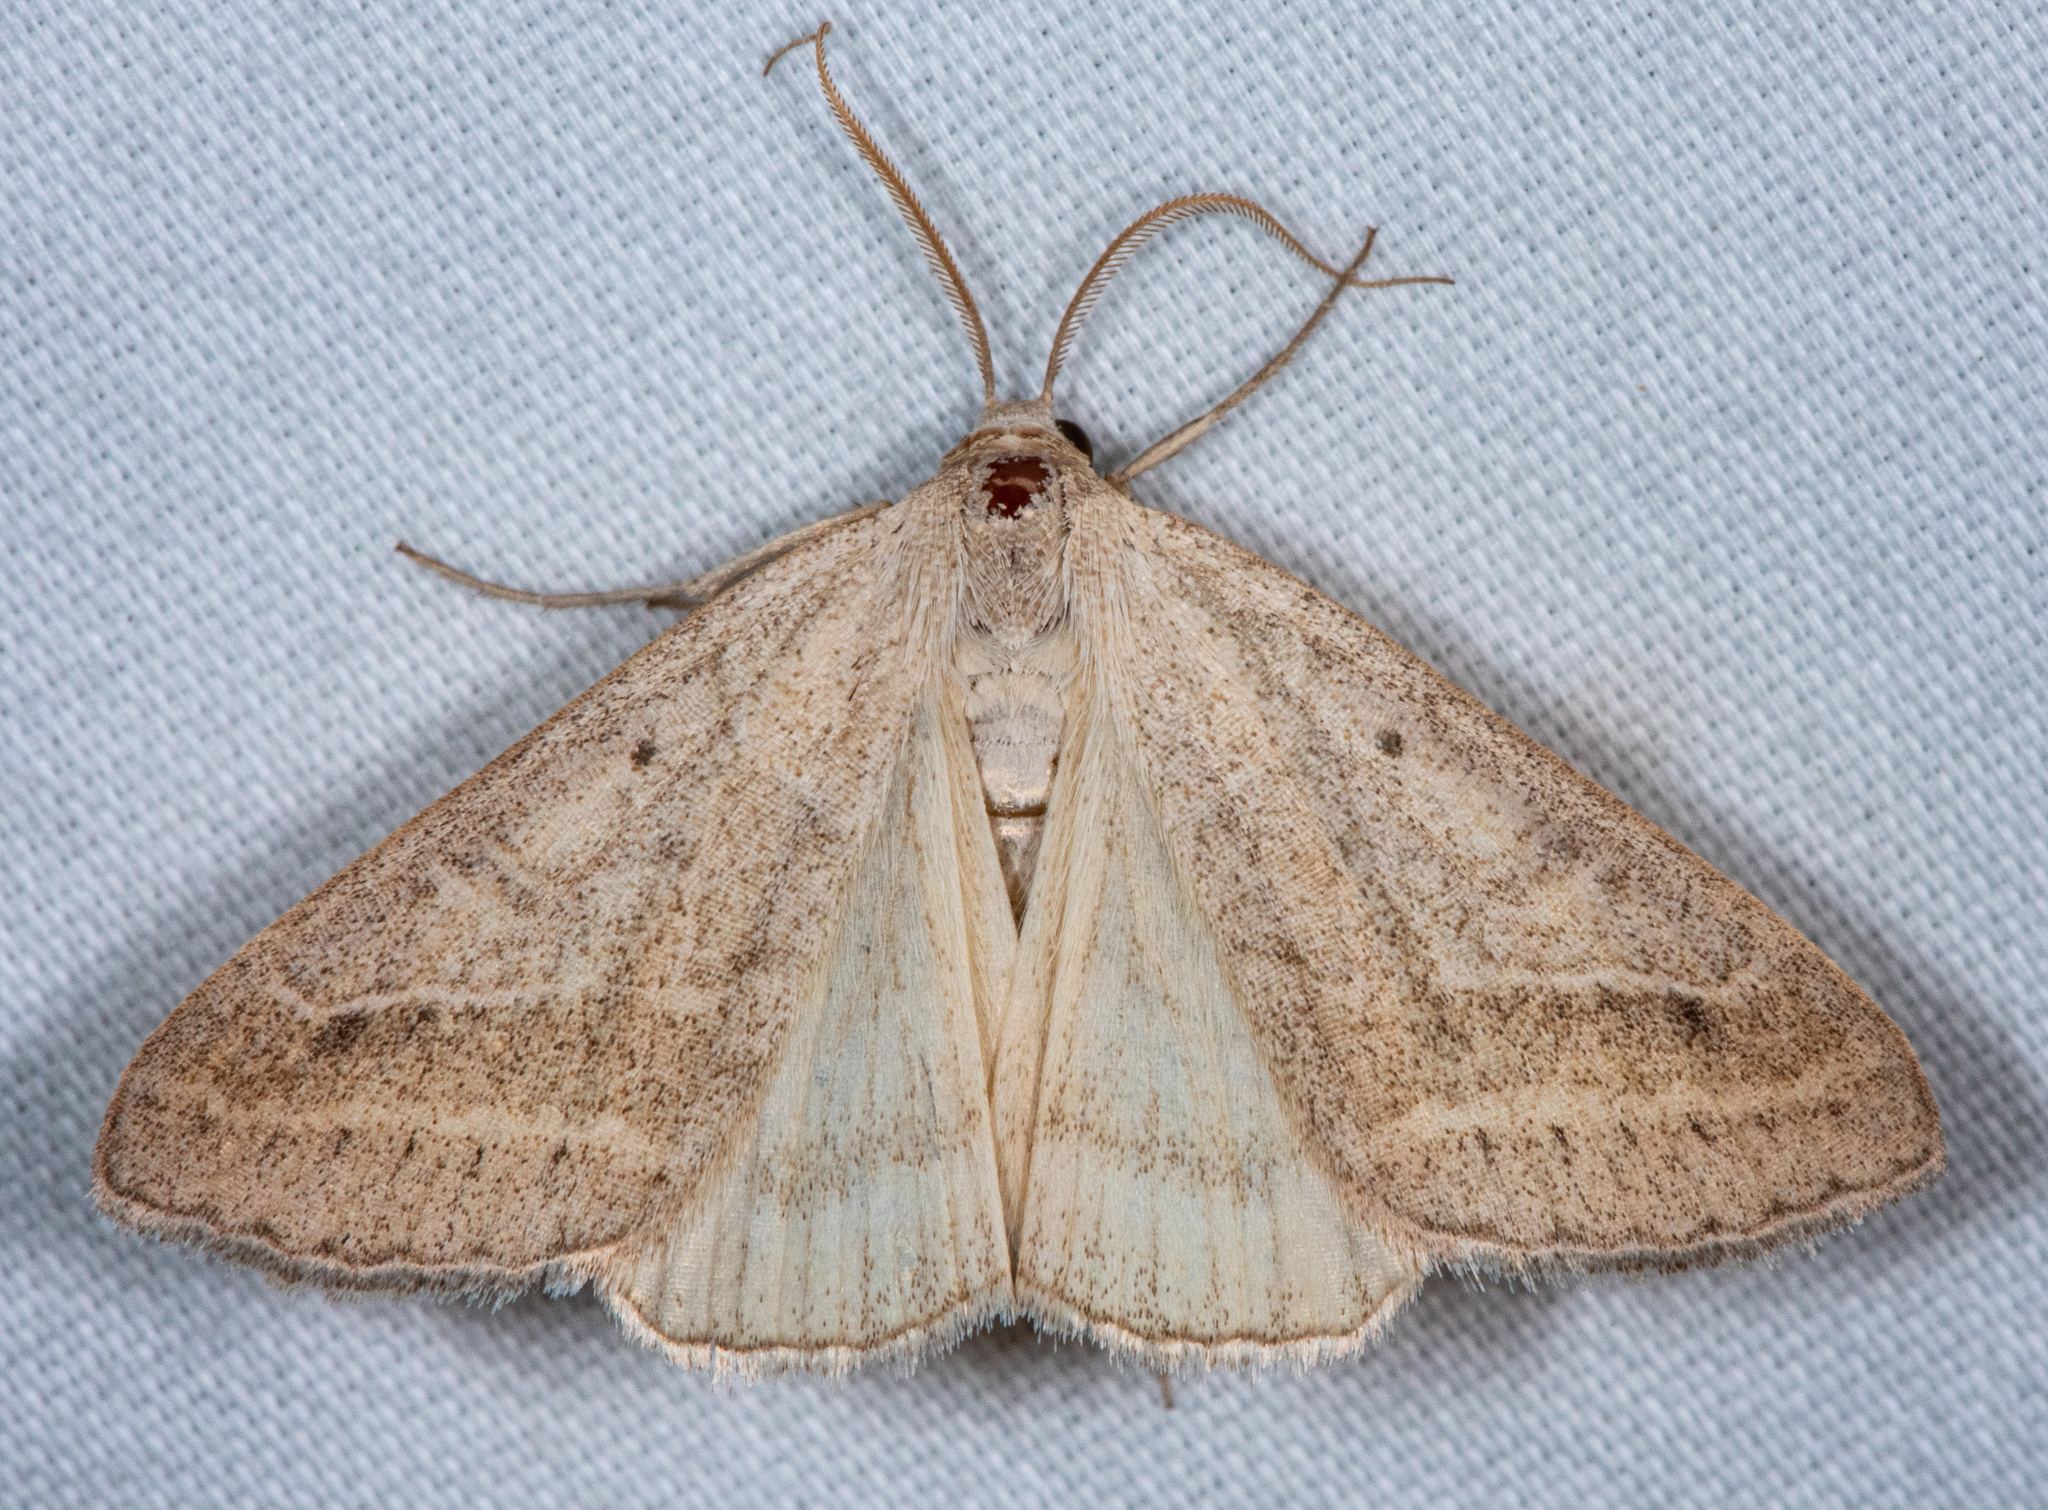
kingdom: Animalia
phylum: Arthropoda
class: Insecta
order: Lepidoptera
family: Erebidae
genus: Caenurgia
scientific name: Caenurgia togataria
